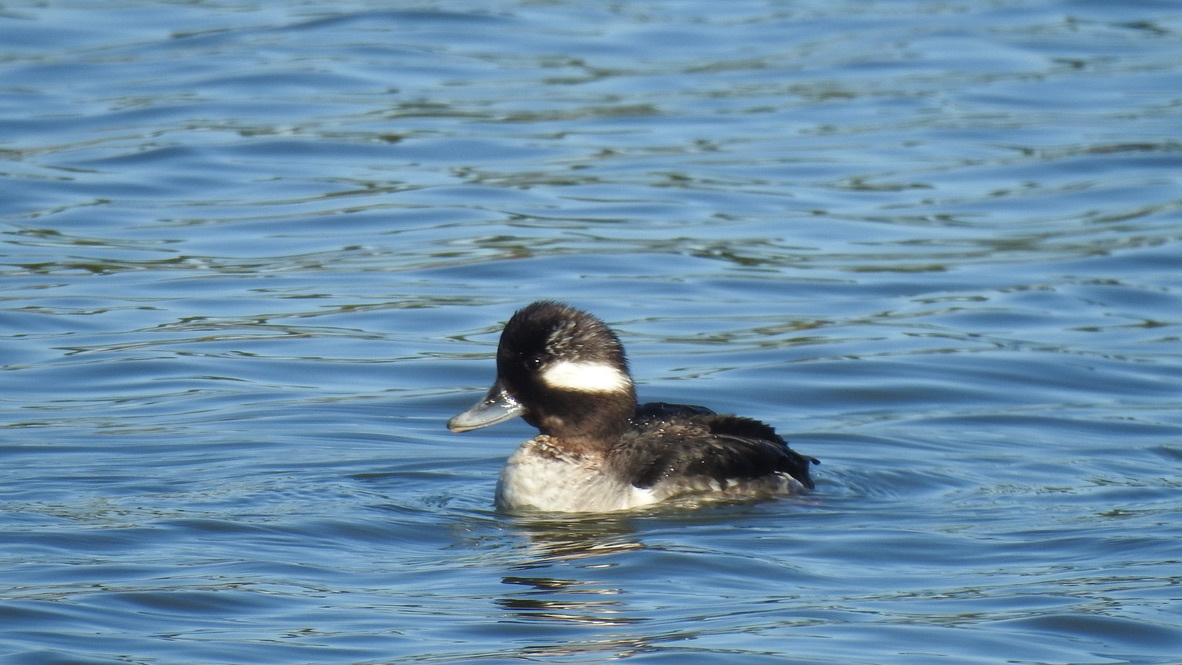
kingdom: Animalia
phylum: Chordata
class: Aves
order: Anseriformes
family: Anatidae
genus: Bucephala
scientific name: Bucephala albeola
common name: Bufflehead
